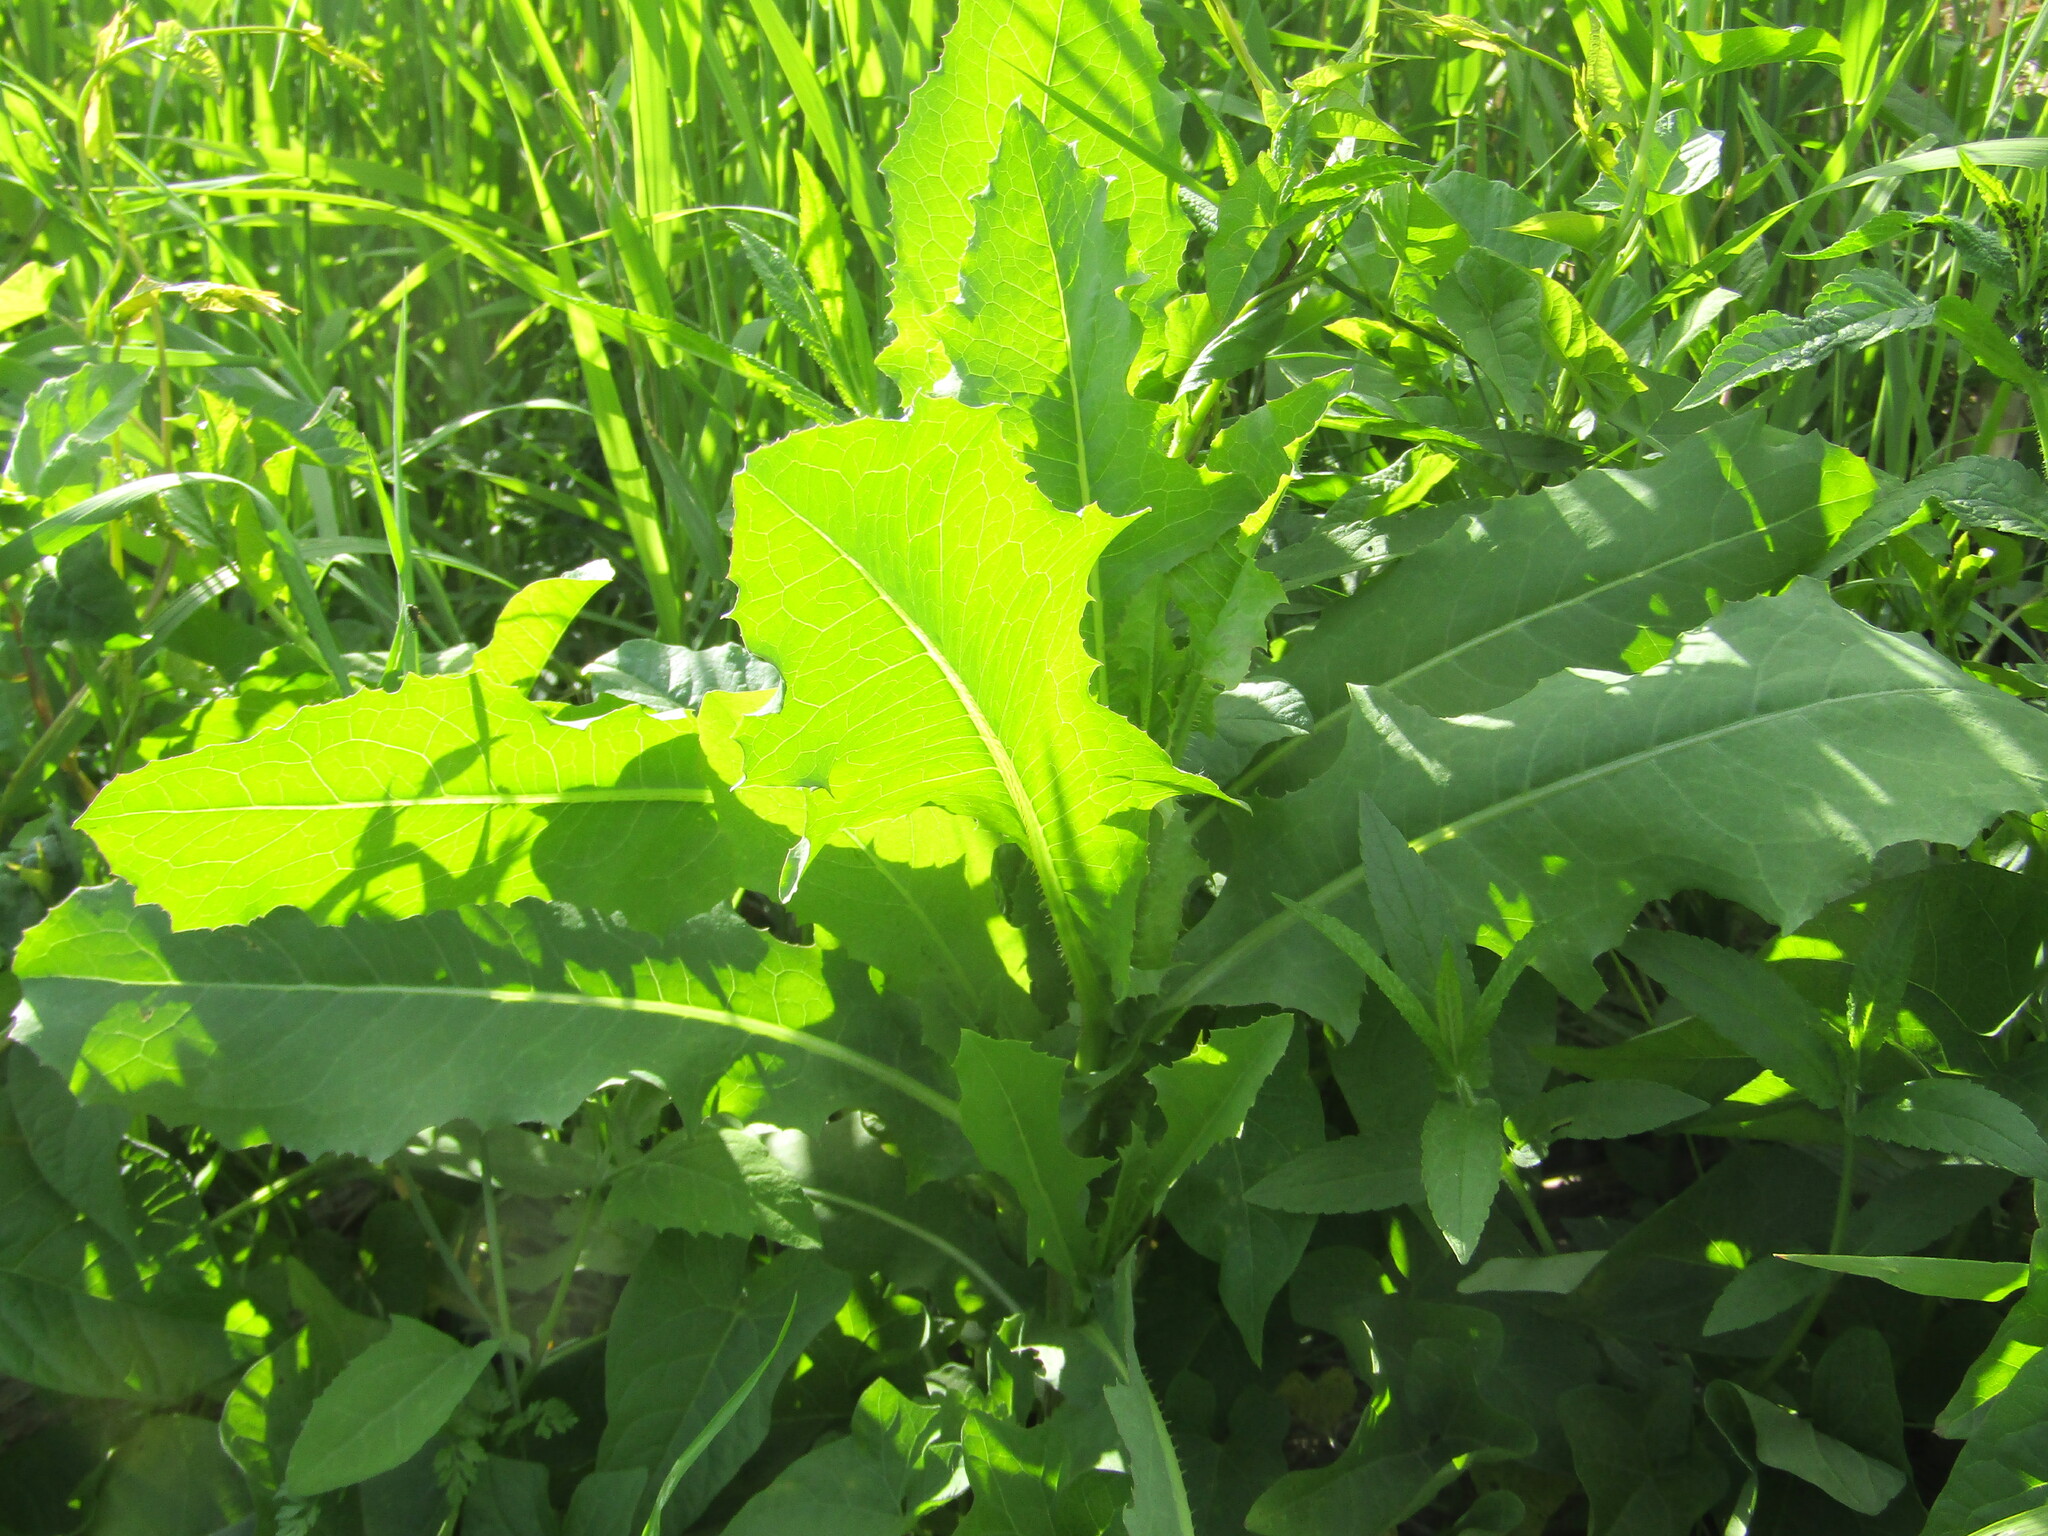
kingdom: Plantae
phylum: Tracheophyta
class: Magnoliopsida
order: Asterales
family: Asteraceae
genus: Lactuca
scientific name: Lactuca serriola
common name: Prickly lettuce
